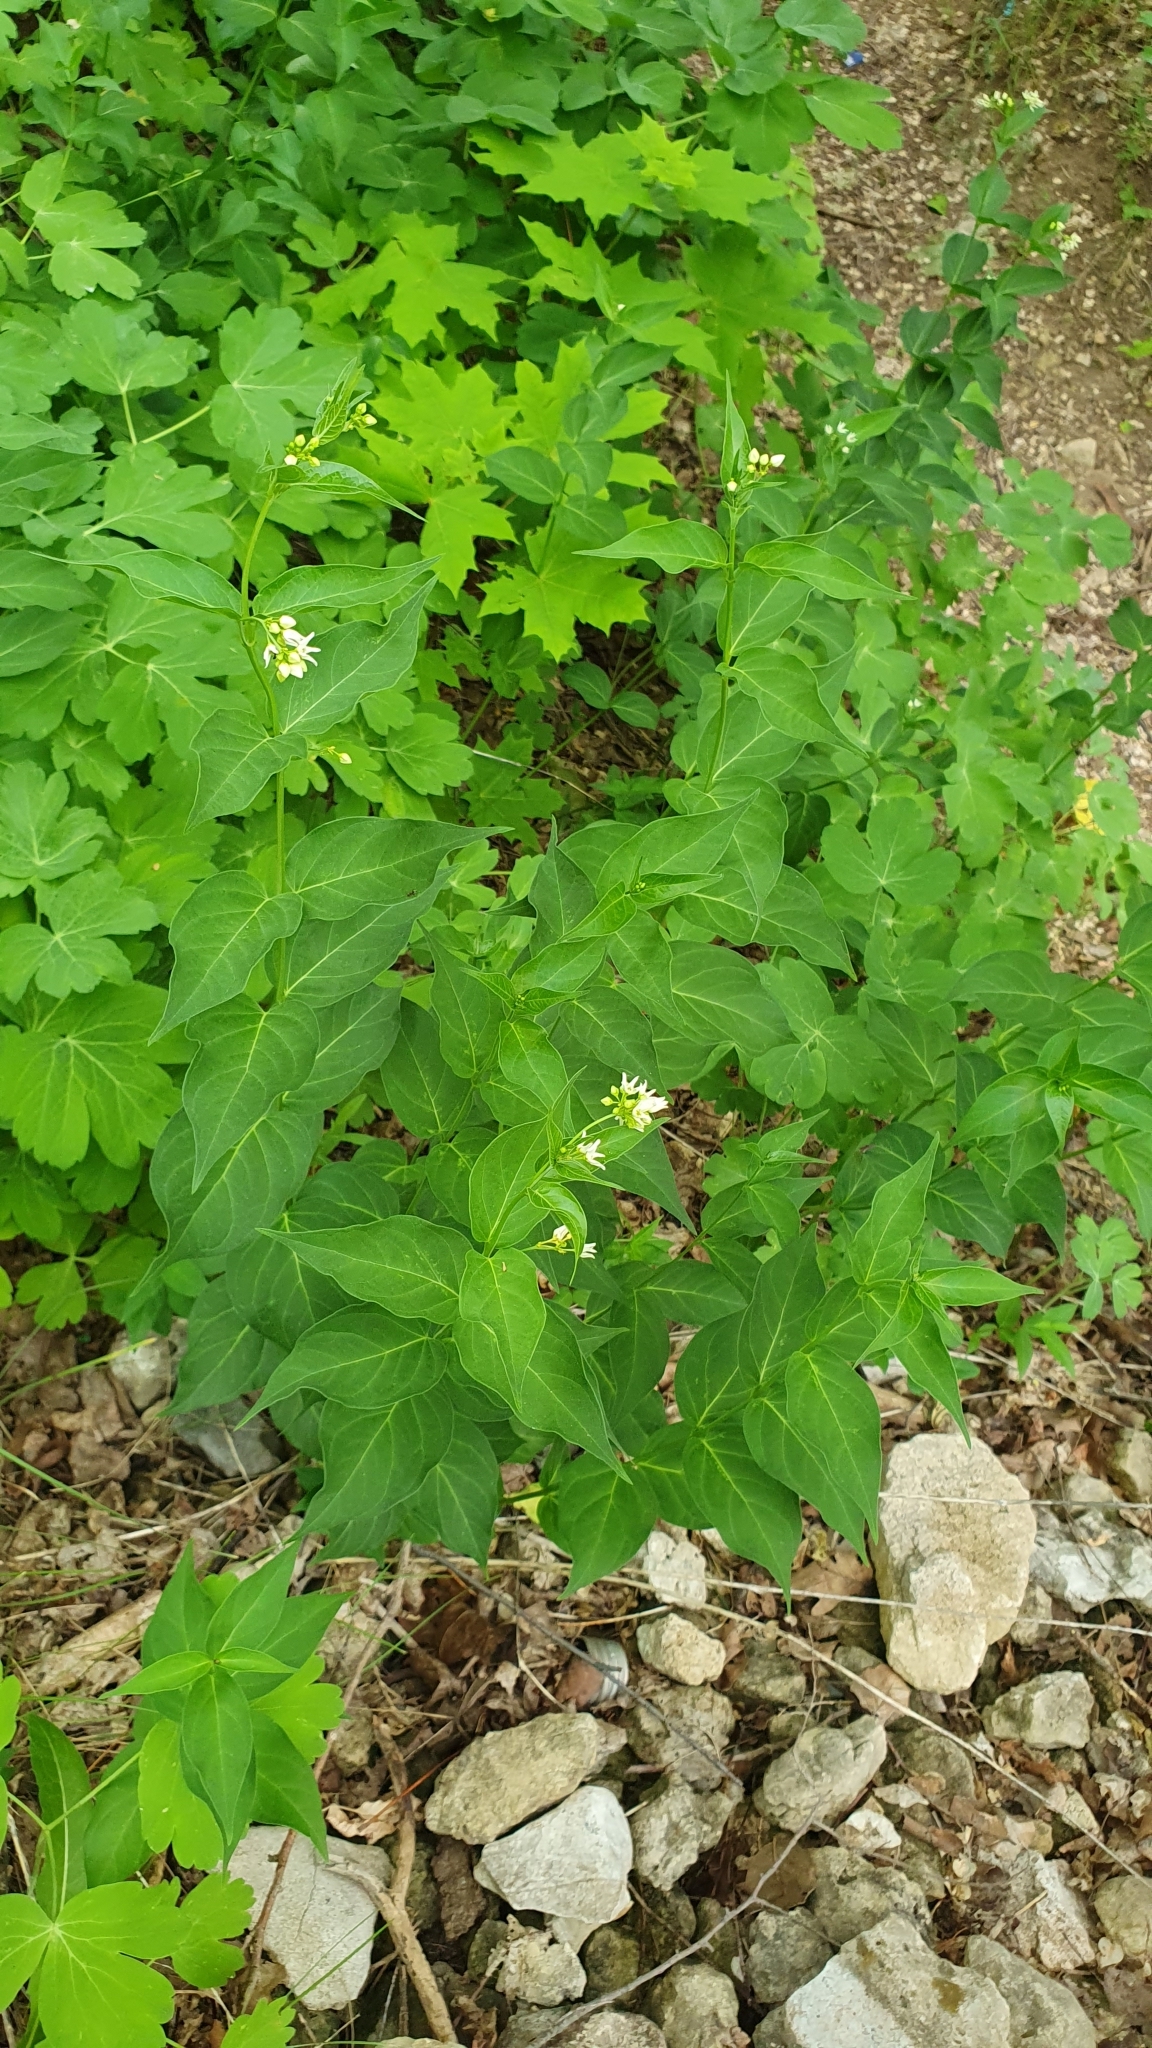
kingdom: Plantae
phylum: Tracheophyta
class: Magnoliopsida
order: Gentianales
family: Apocynaceae
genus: Vincetoxicum
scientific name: Vincetoxicum hirundinaria
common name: White swallowwort
